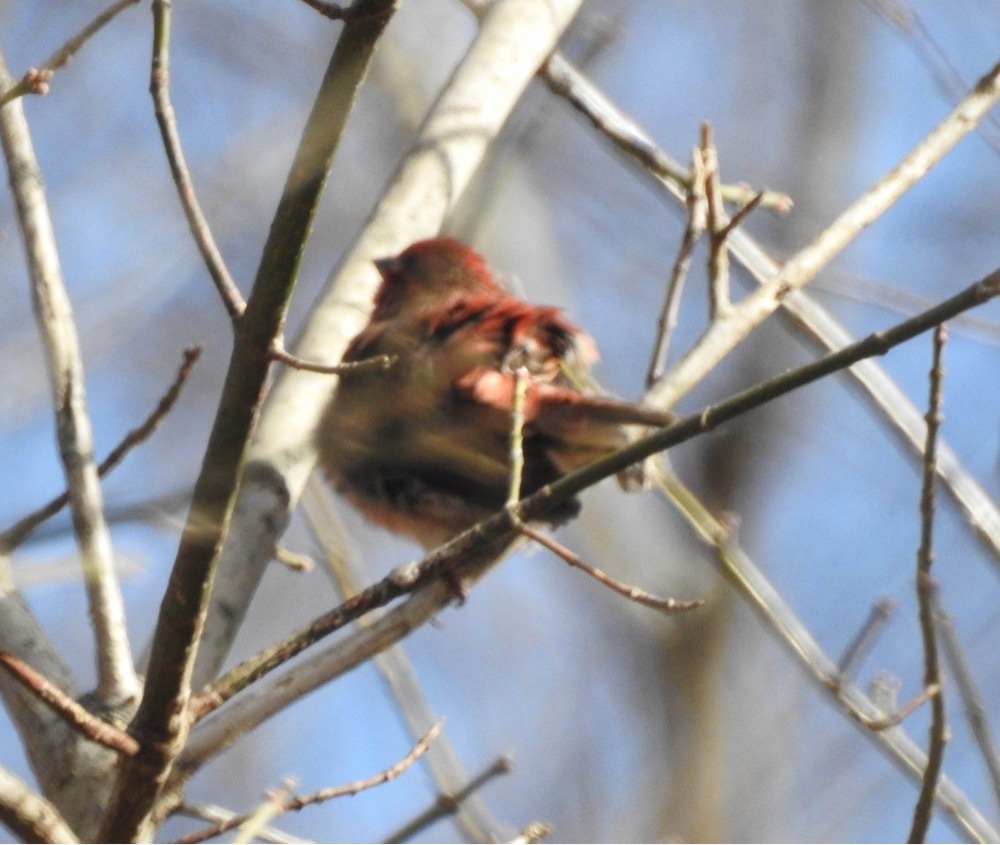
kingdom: Animalia
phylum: Chordata
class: Aves
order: Passeriformes
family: Fringillidae
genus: Haemorhous
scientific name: Haemorhous mexicanus
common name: House finch
